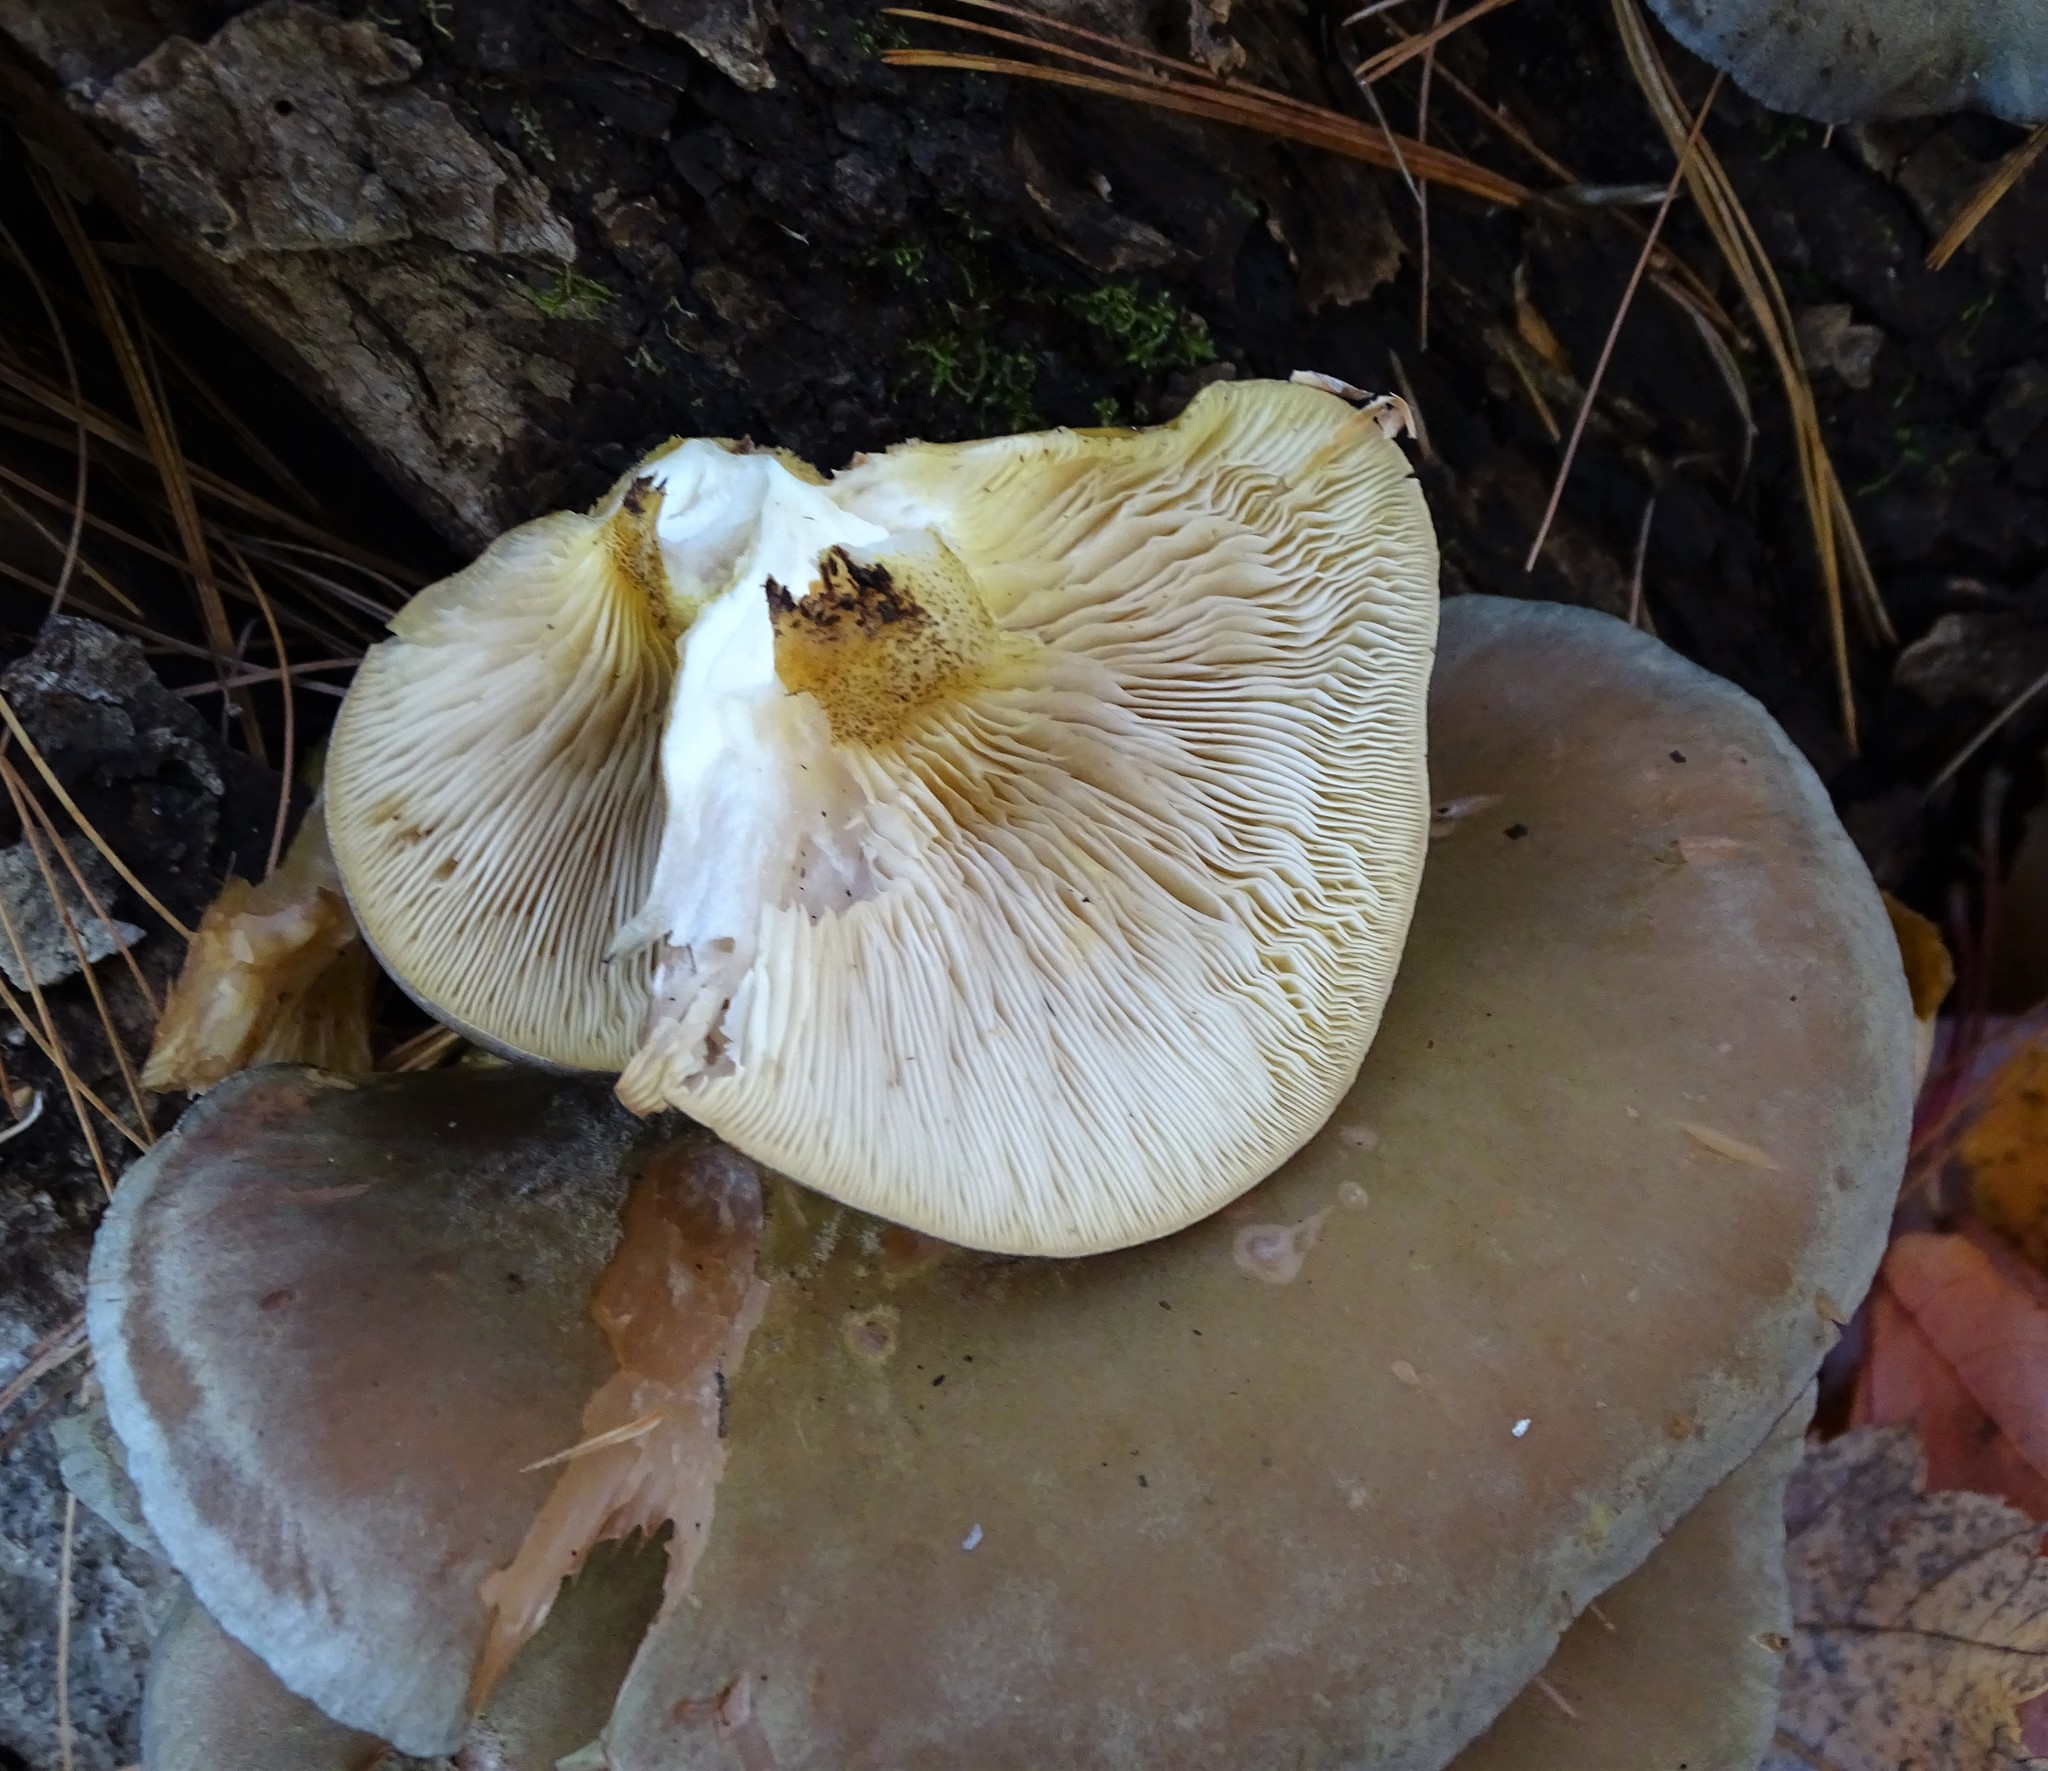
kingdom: Fungi
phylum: Basidiomycota
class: Agaricomycetes
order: Agaricales
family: Sarcomyxaceae
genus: Sarcomyxa
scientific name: Sarcomyxa serotina
